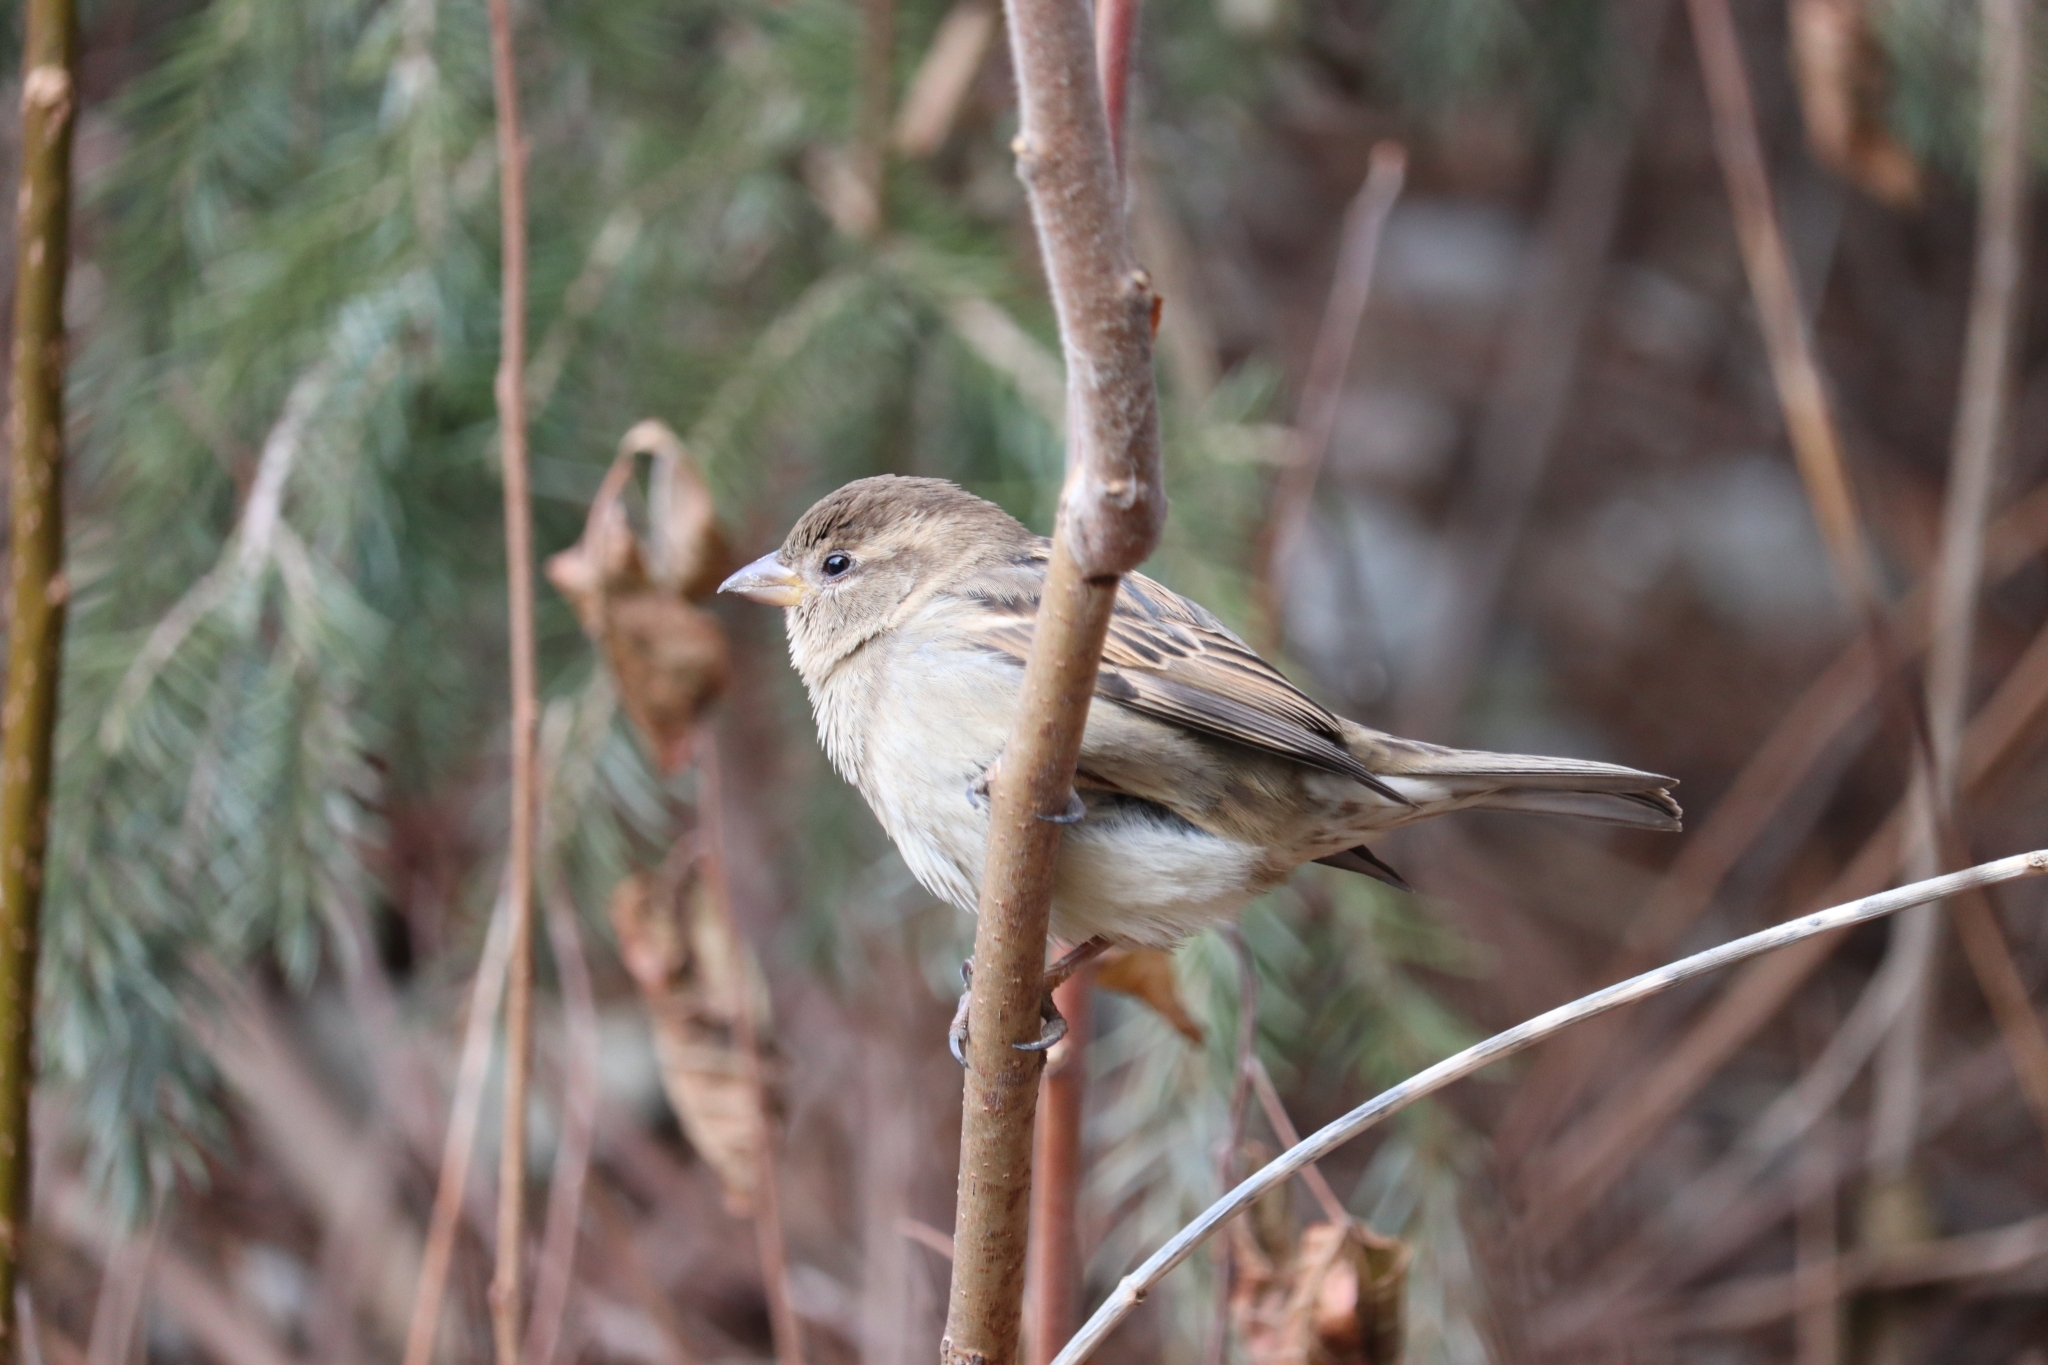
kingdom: Animalia
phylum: Chordata
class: Aves
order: Passeriformes
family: Passeridae
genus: Passer
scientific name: Passer domesticus
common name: House sparrow
